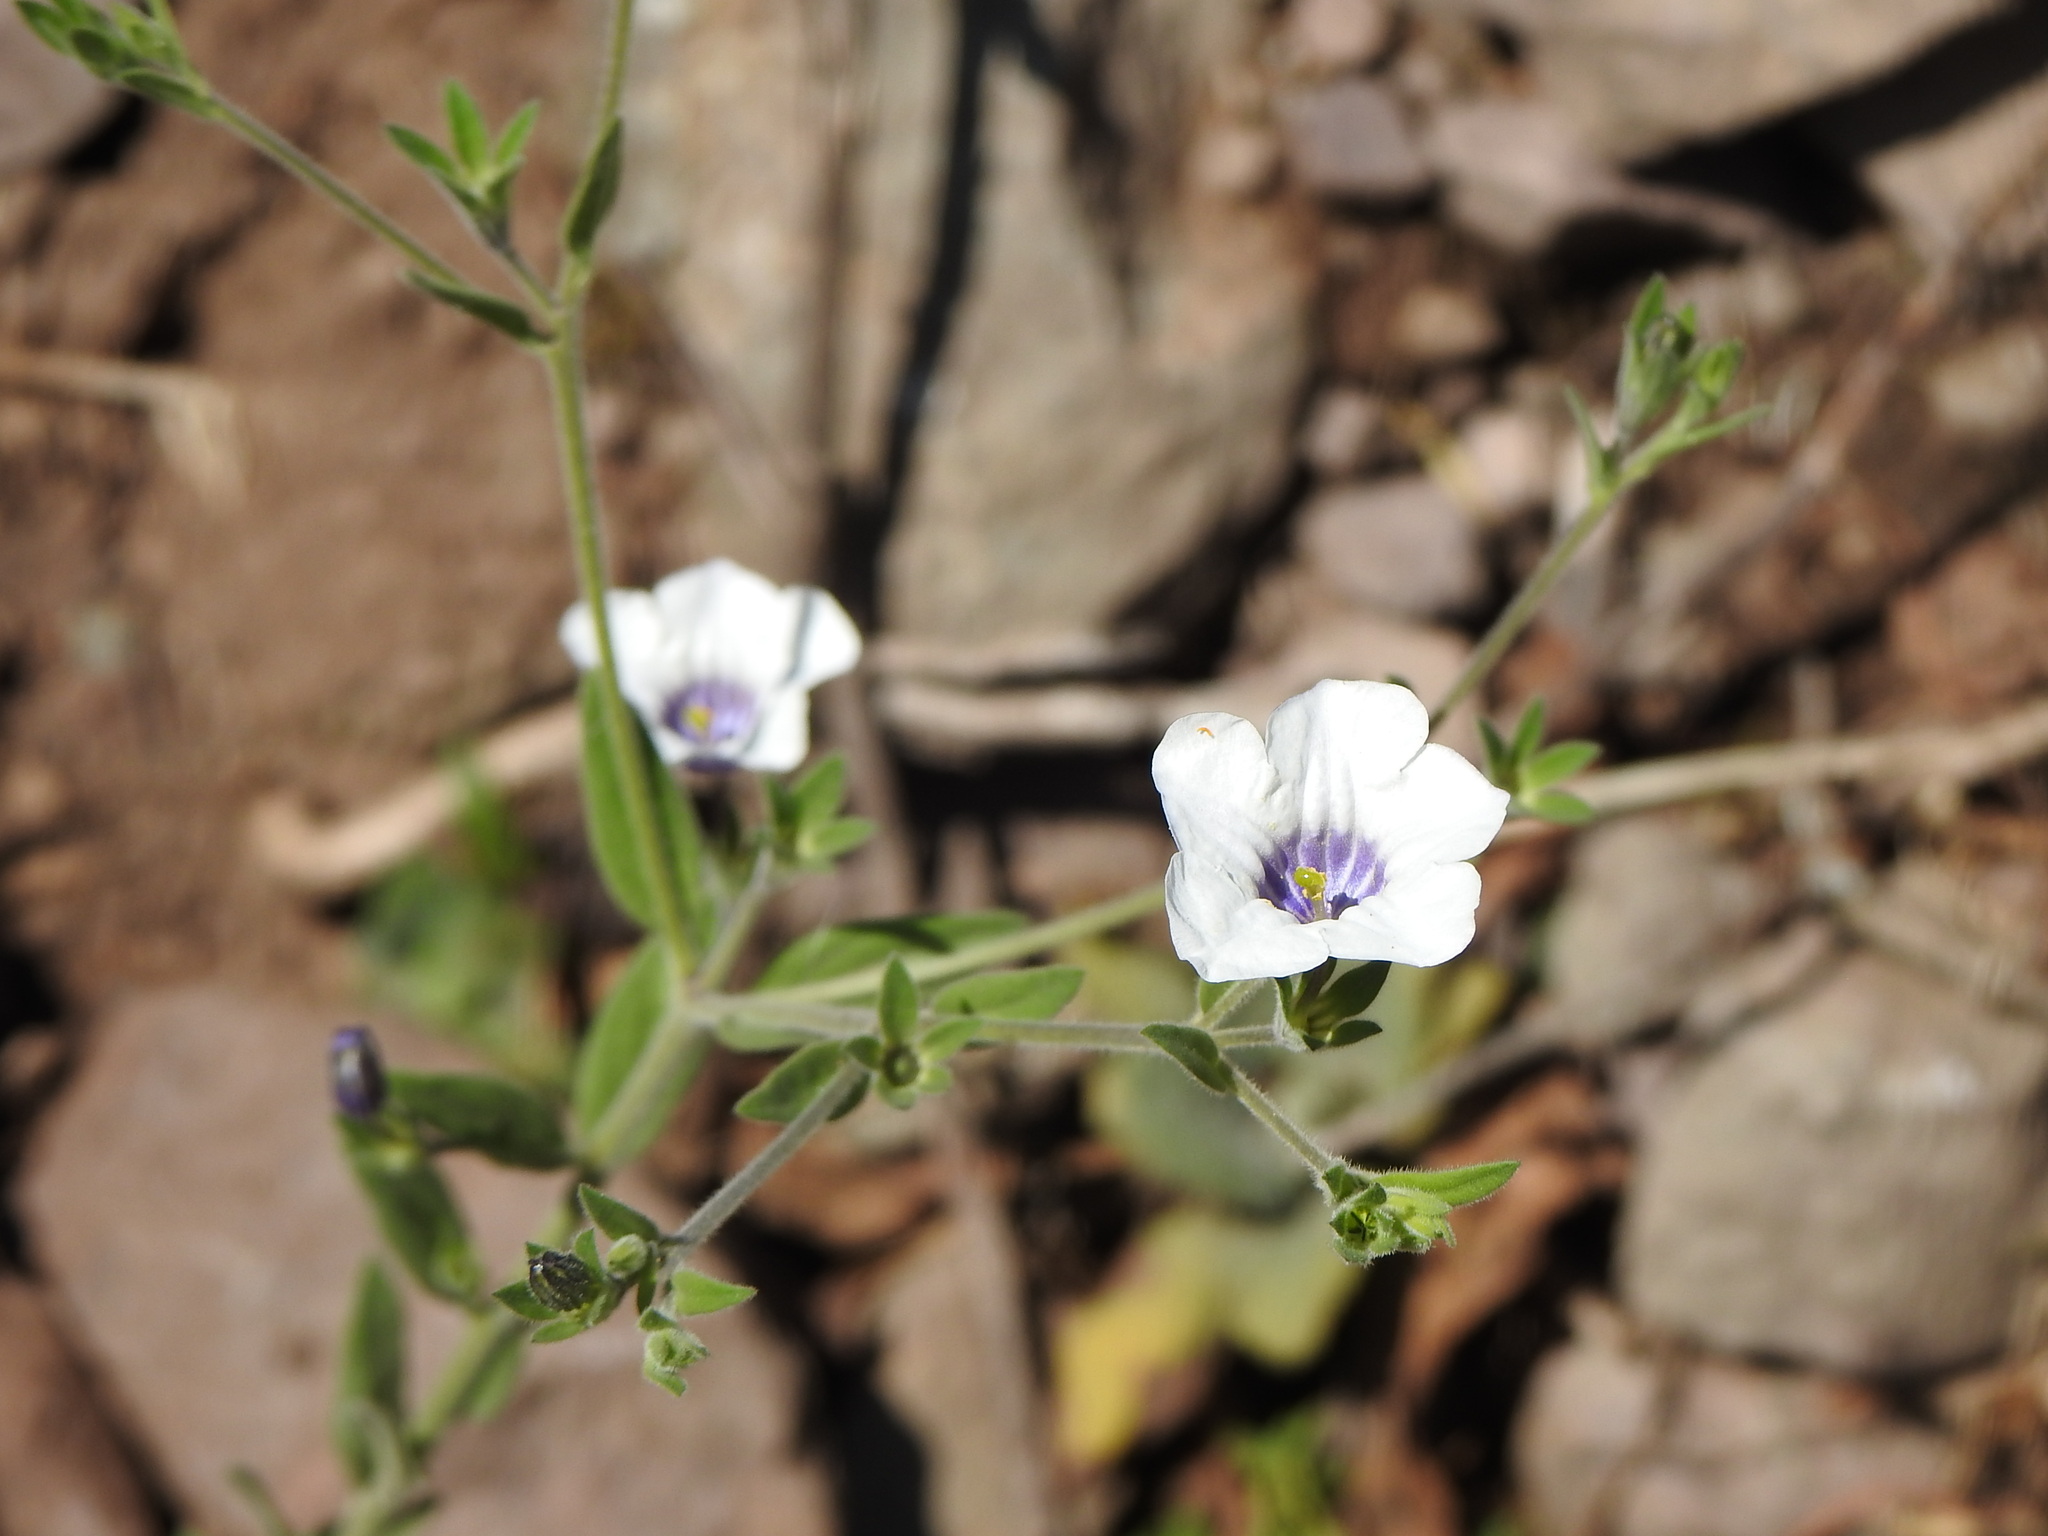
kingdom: Plantae
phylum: Tracheophyta
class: Magnoliopsida
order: Solanales
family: Solanaceae
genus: Nierembergia
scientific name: Nierembergia browallioides
